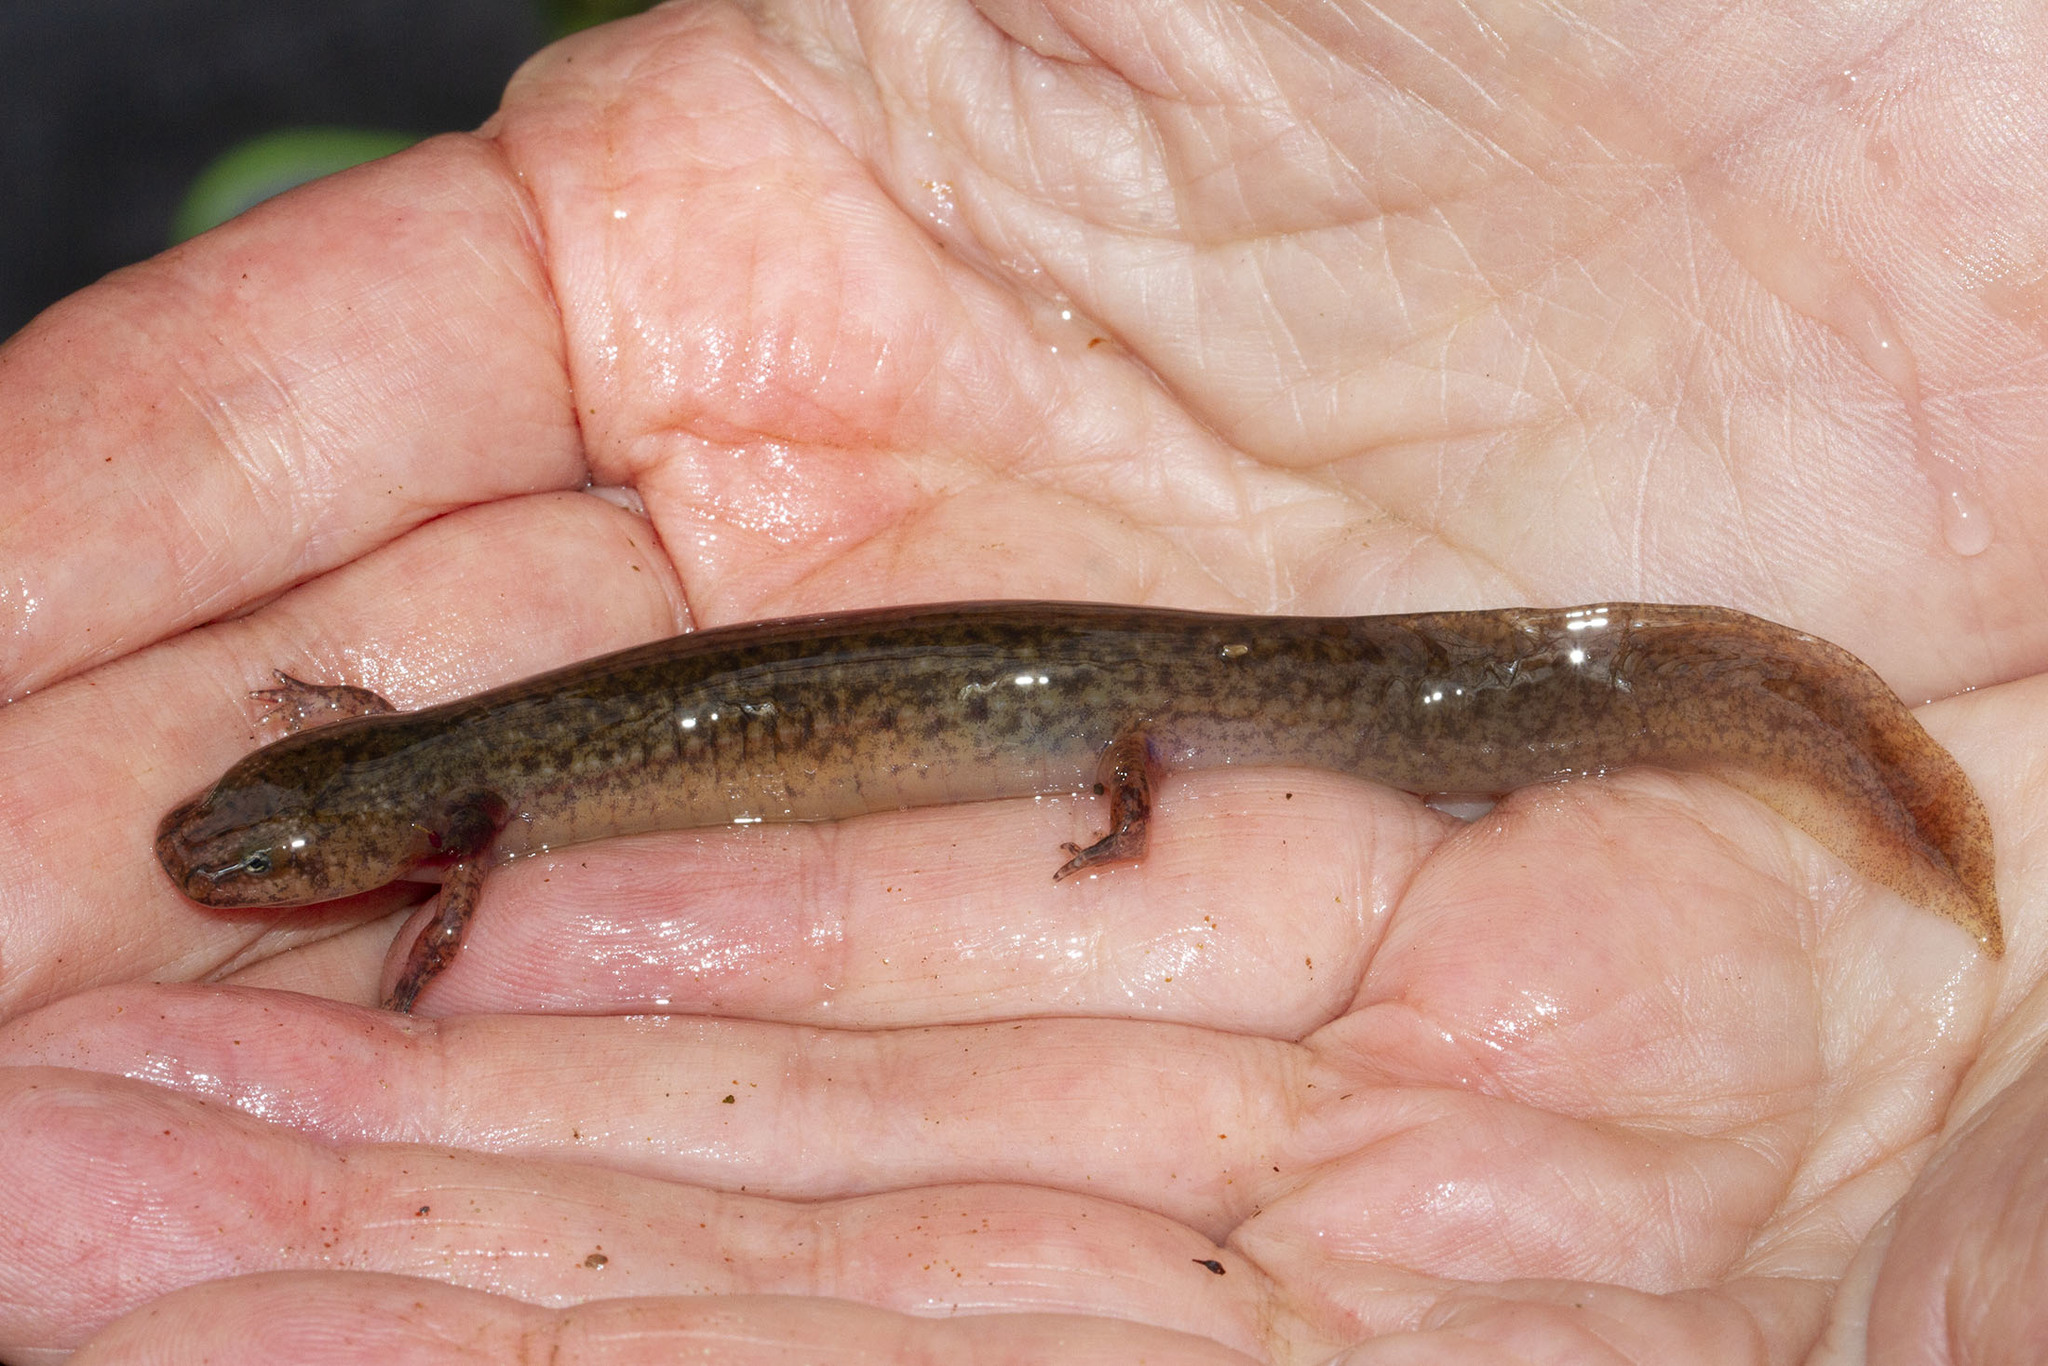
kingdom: Animalia
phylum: Chordata
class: Amphibia
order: Caudata
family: Plethodontidae
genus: Pseudotriton
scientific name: Pseudotriton ruber
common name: Red salamander
